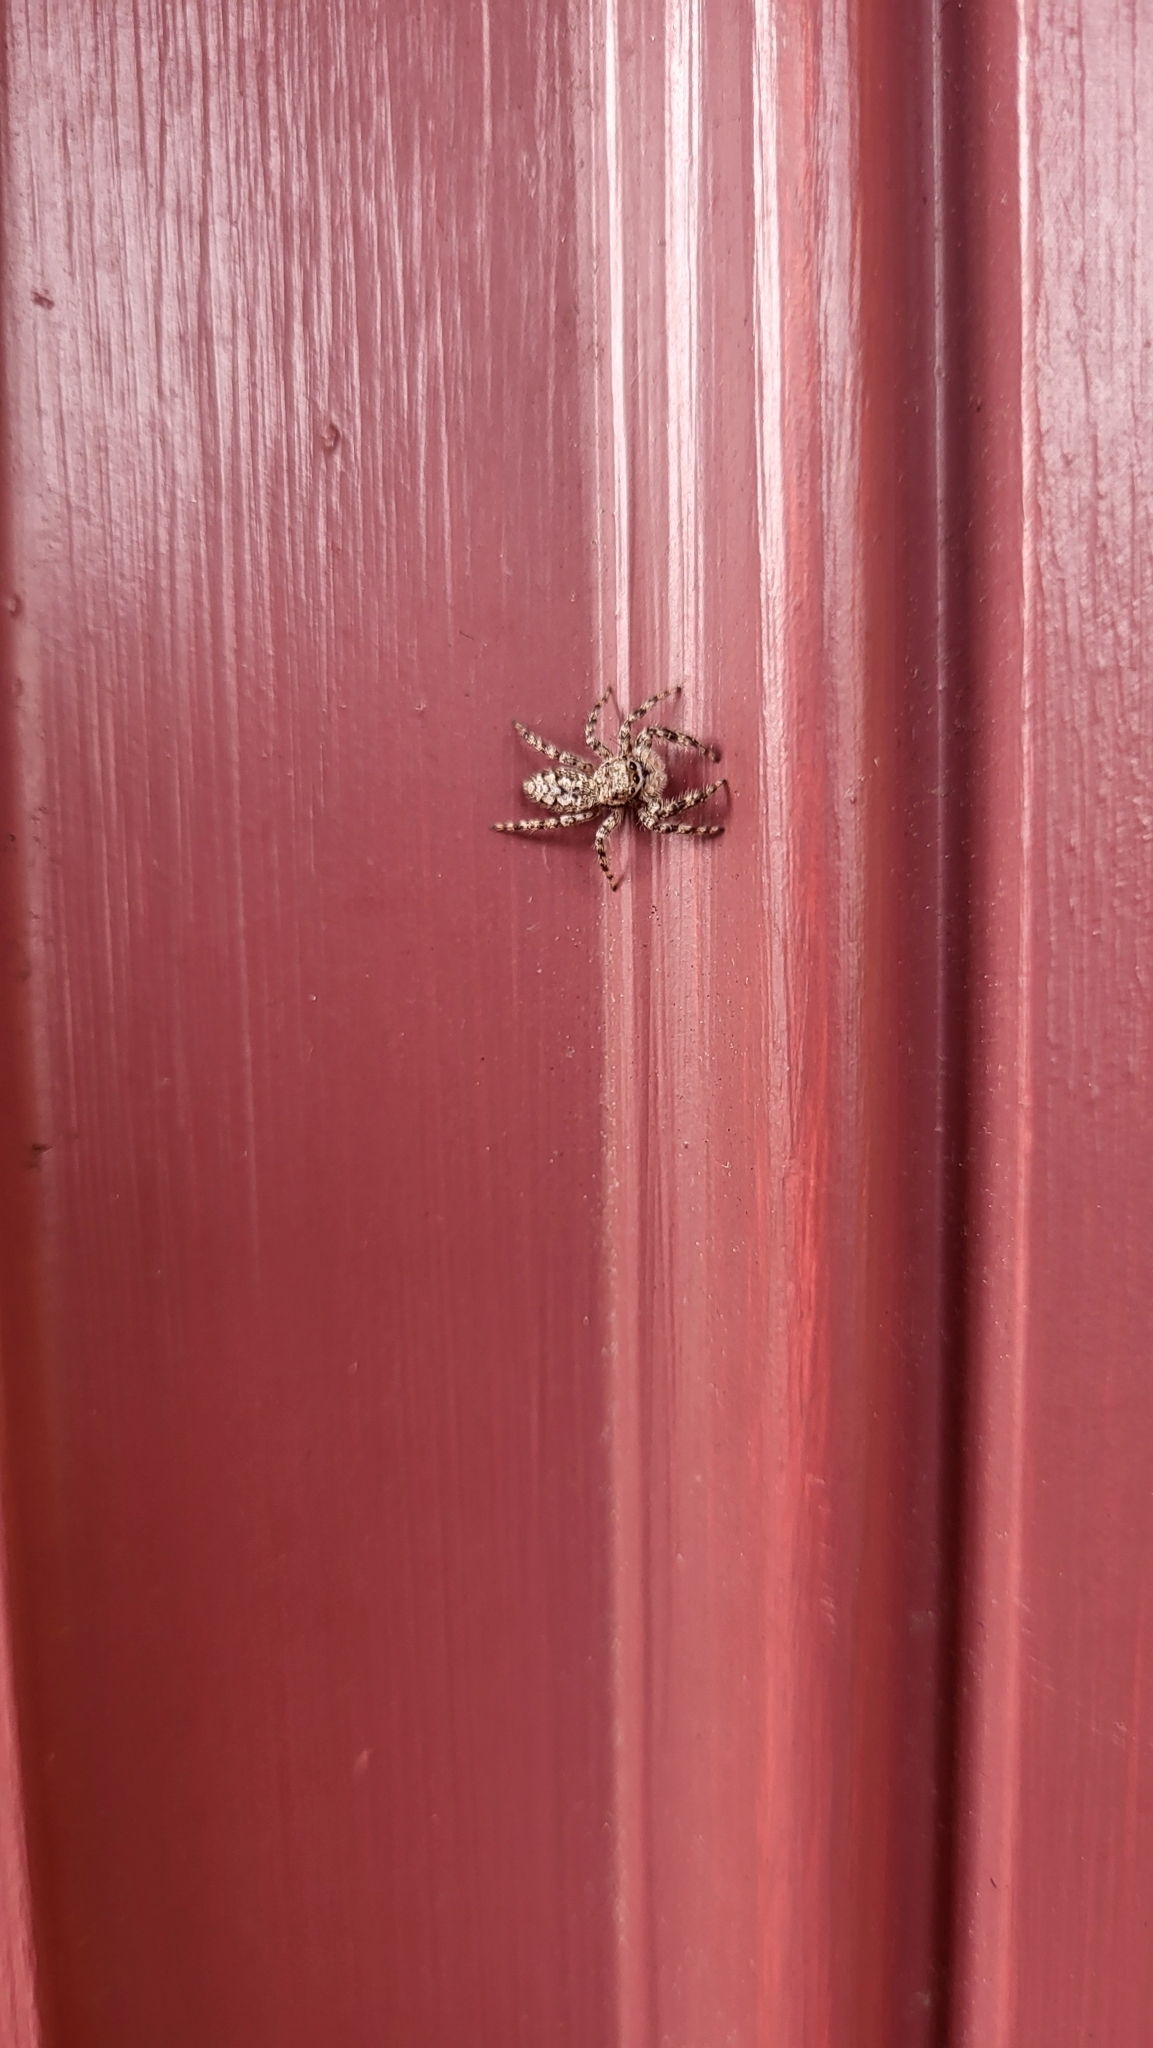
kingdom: Animalia
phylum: Arthropoda
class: Arachnida
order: Araneae
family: Salticidae
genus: Platycryptus
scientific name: Platycryptus undatus
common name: Tan jumping spider
